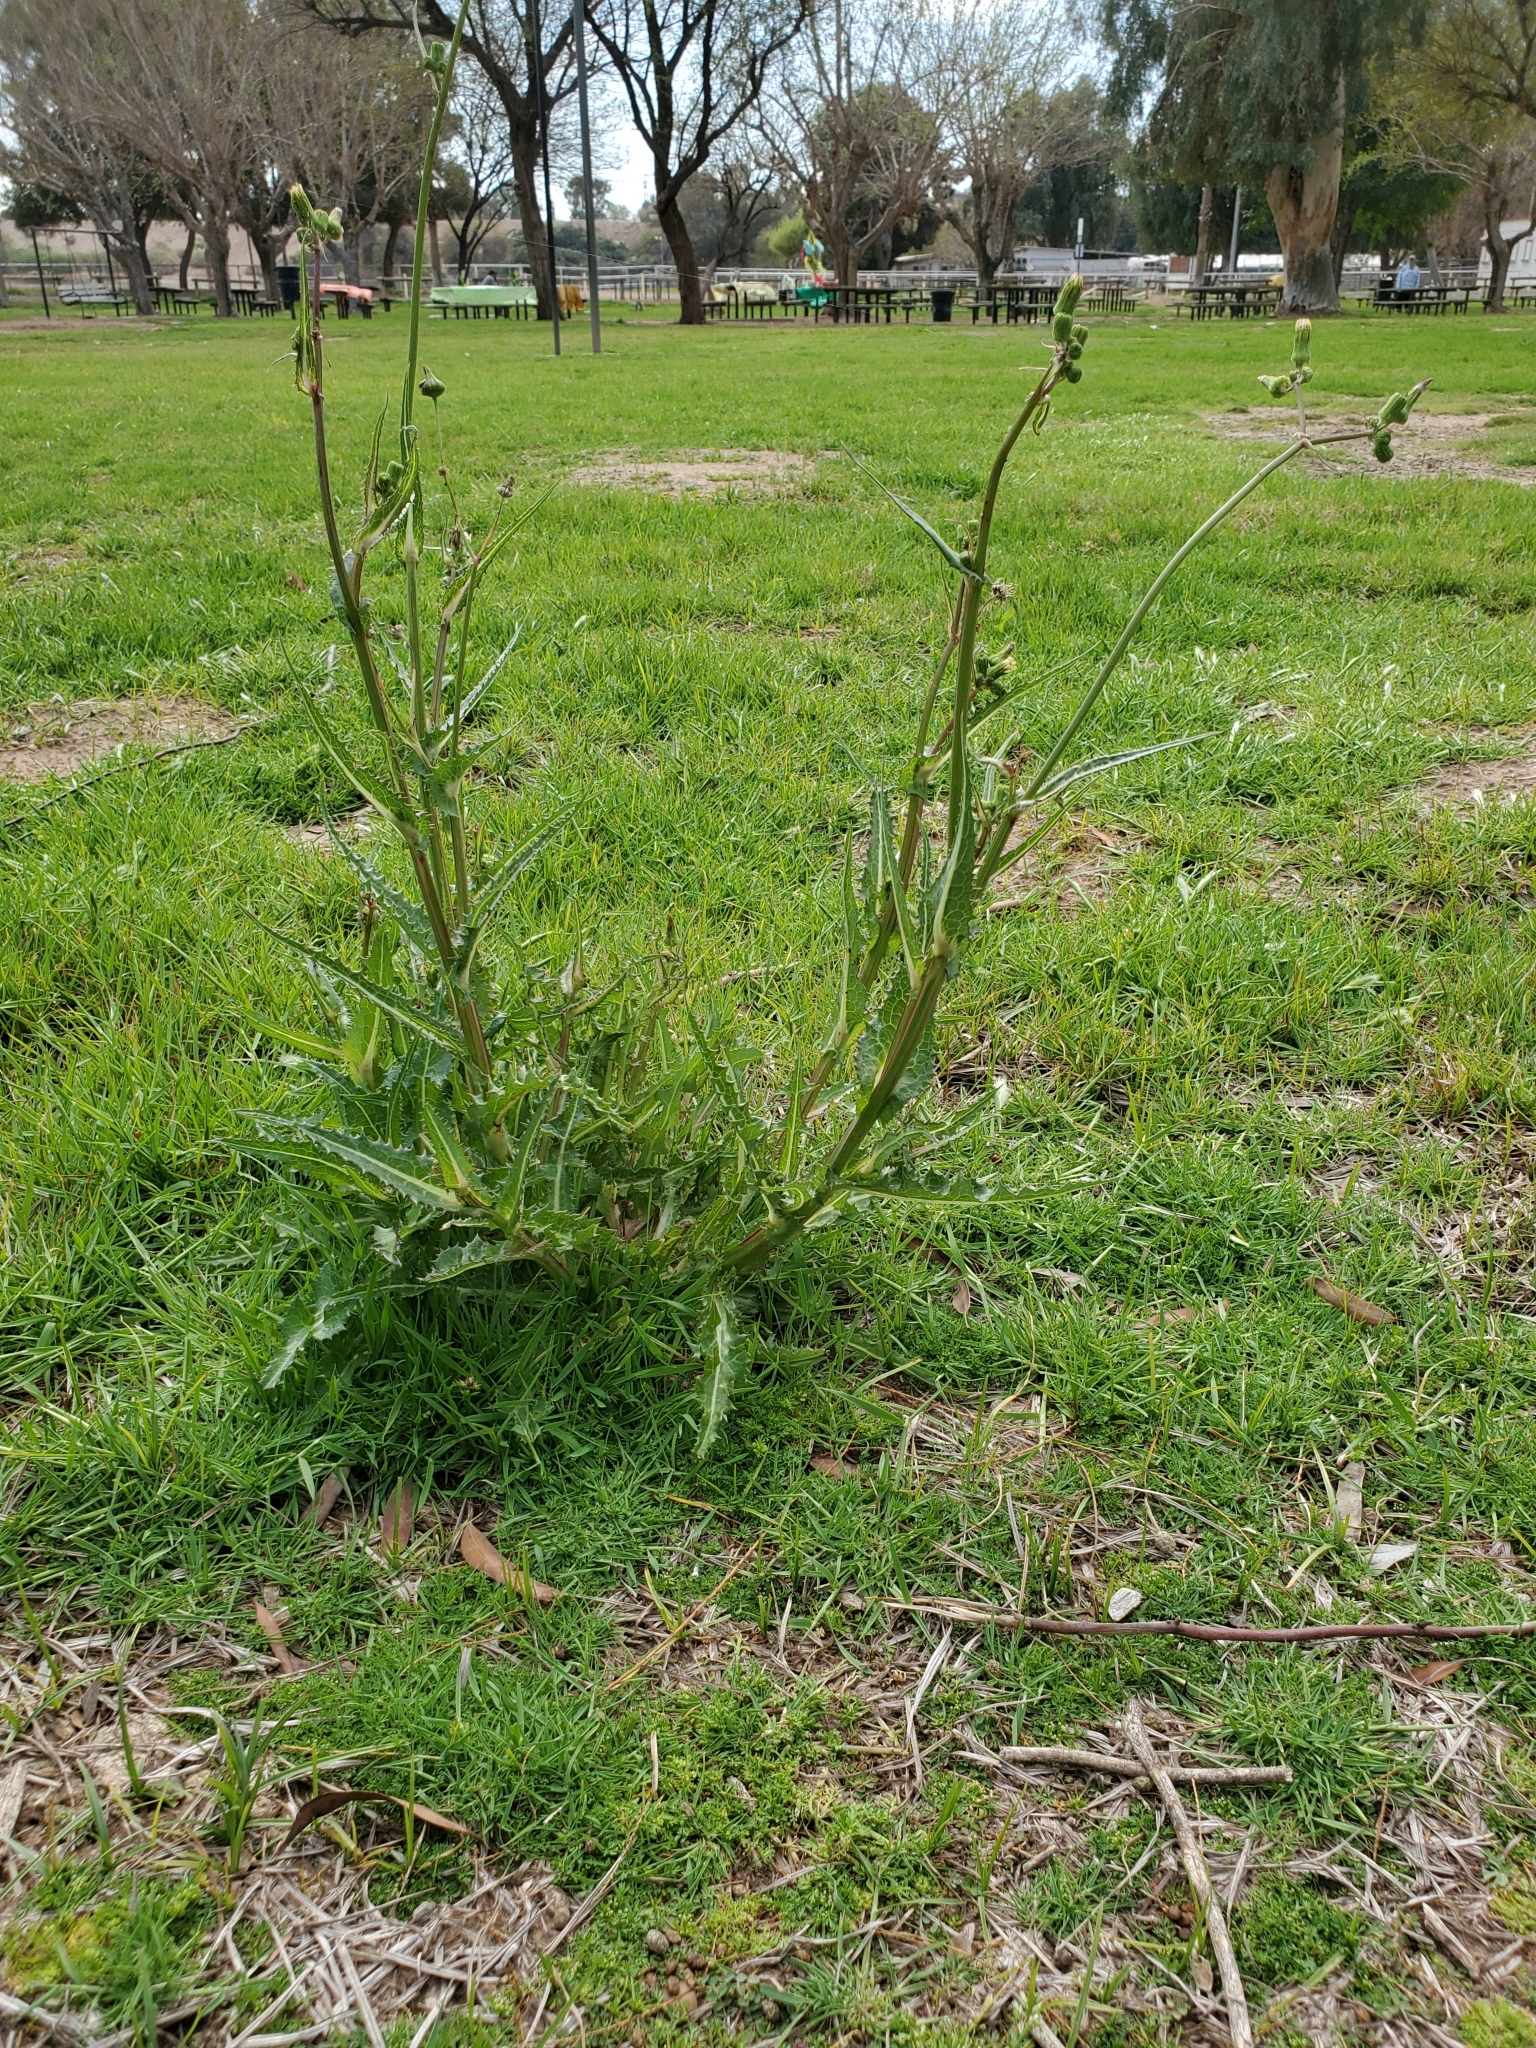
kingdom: Plantae
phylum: Tracheophyta
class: Magnoliopsida
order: Asterales
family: Asteraceae
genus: Sonchus
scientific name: Sonchus asper
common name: Prickly sow-thistle
